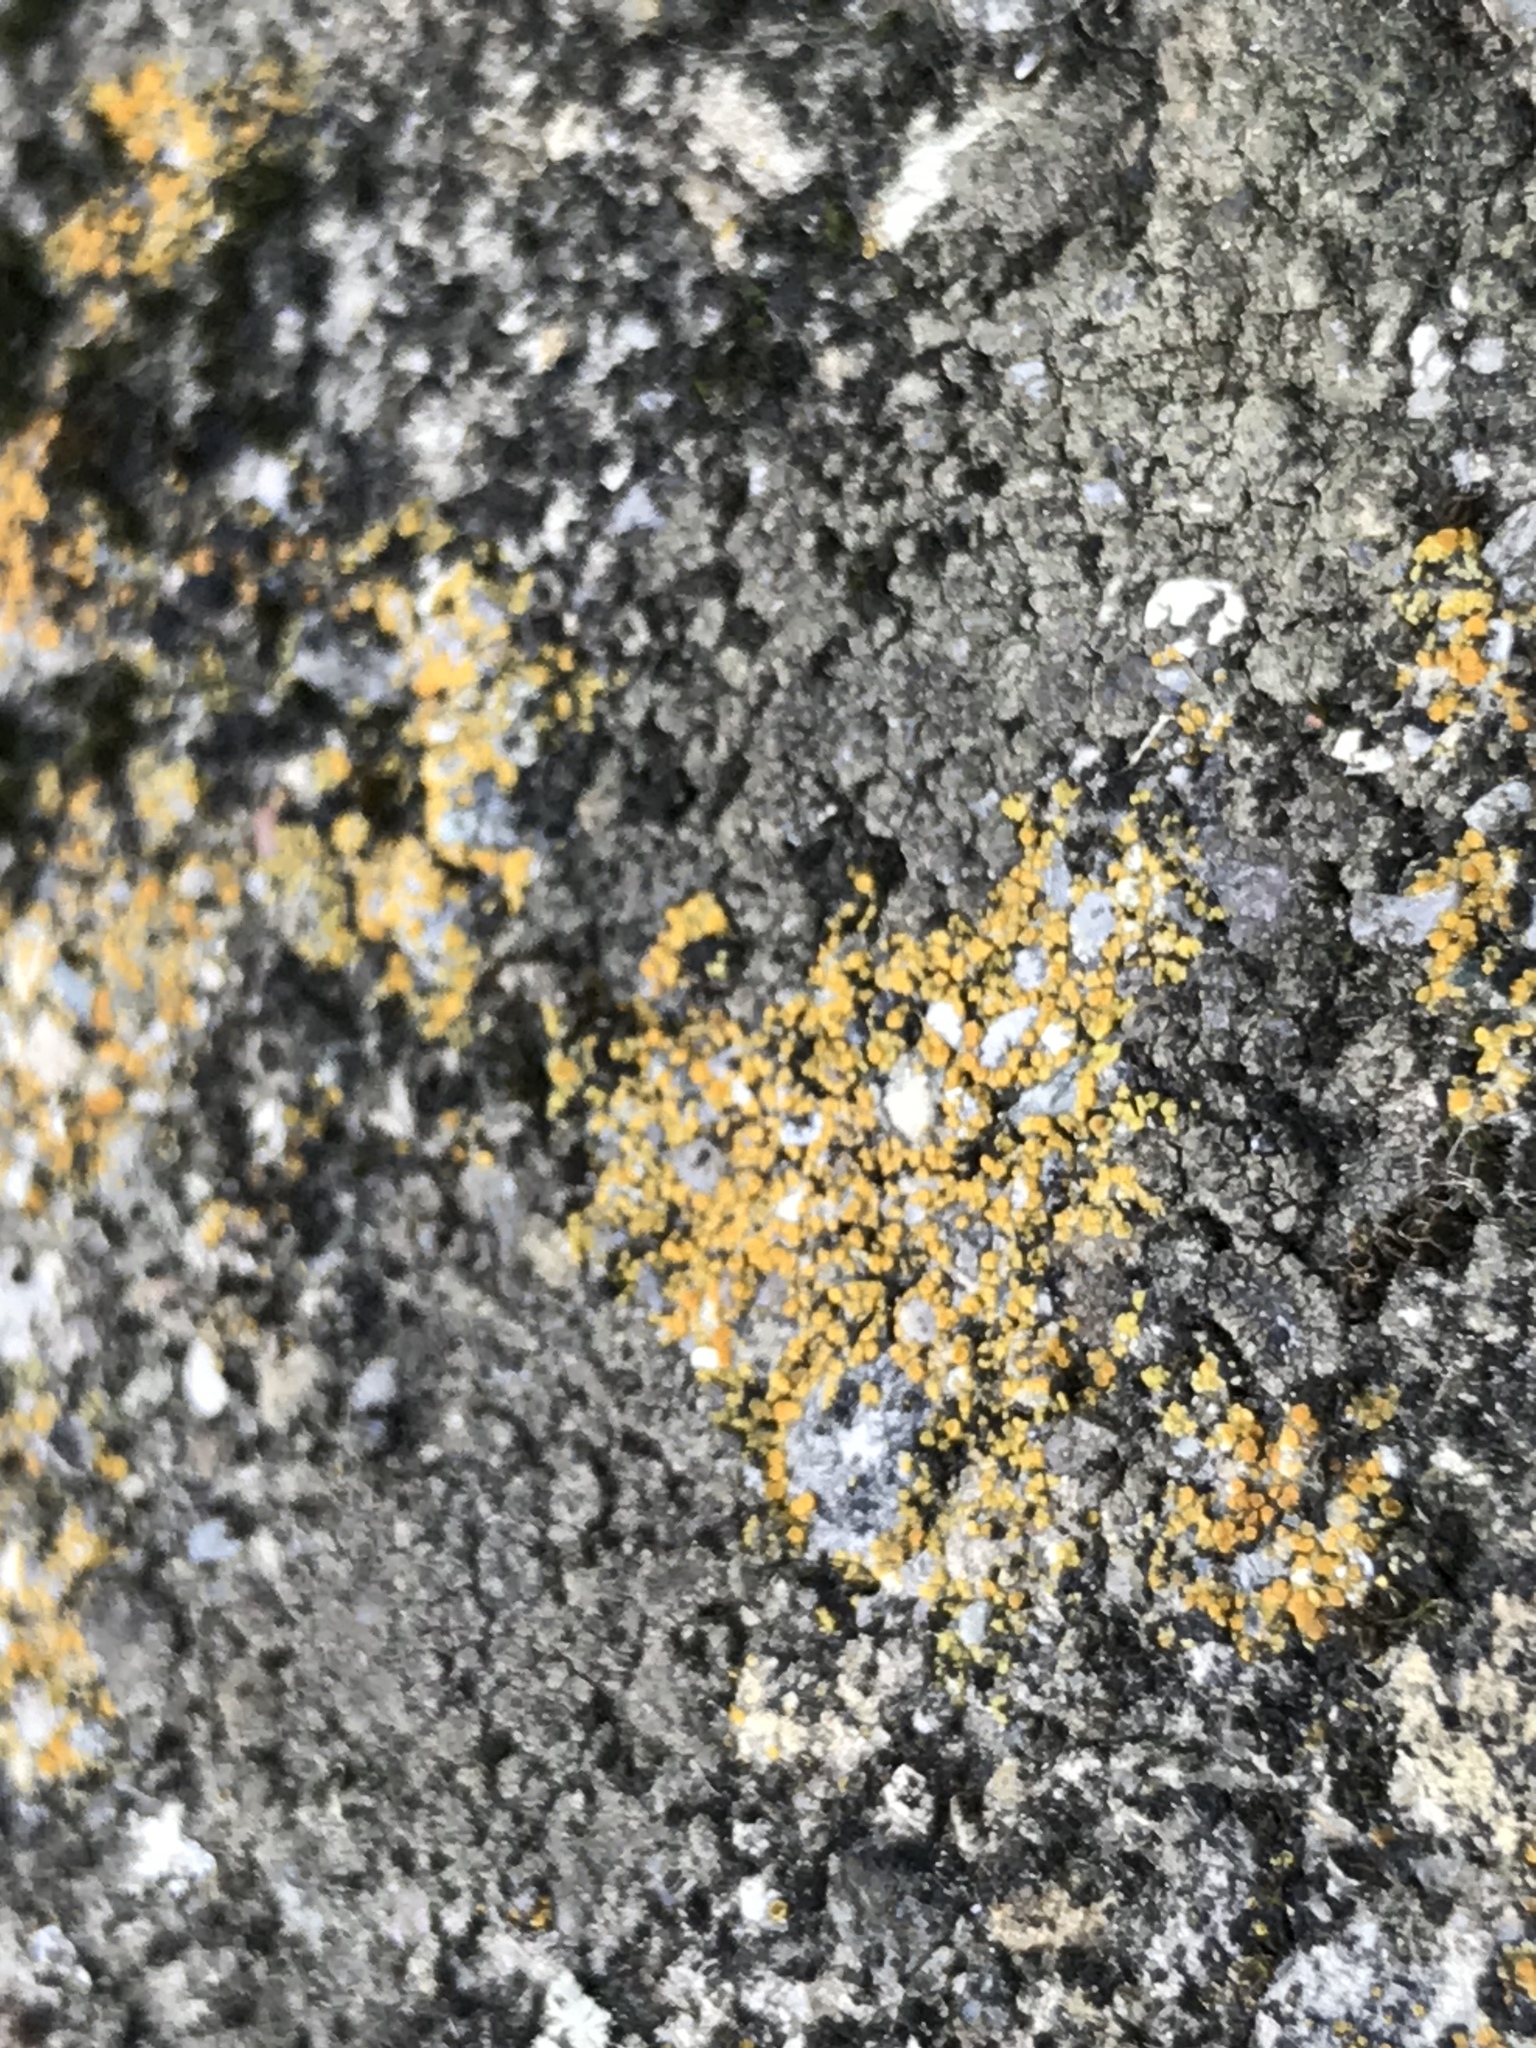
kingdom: Fungi
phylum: Ascomycota
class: Lecanoromycetes
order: Teloschistales
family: Teloschistaceae
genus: Xanthocarpia
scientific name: Xanthocarpia feracissima
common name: Sidewalk firedot
